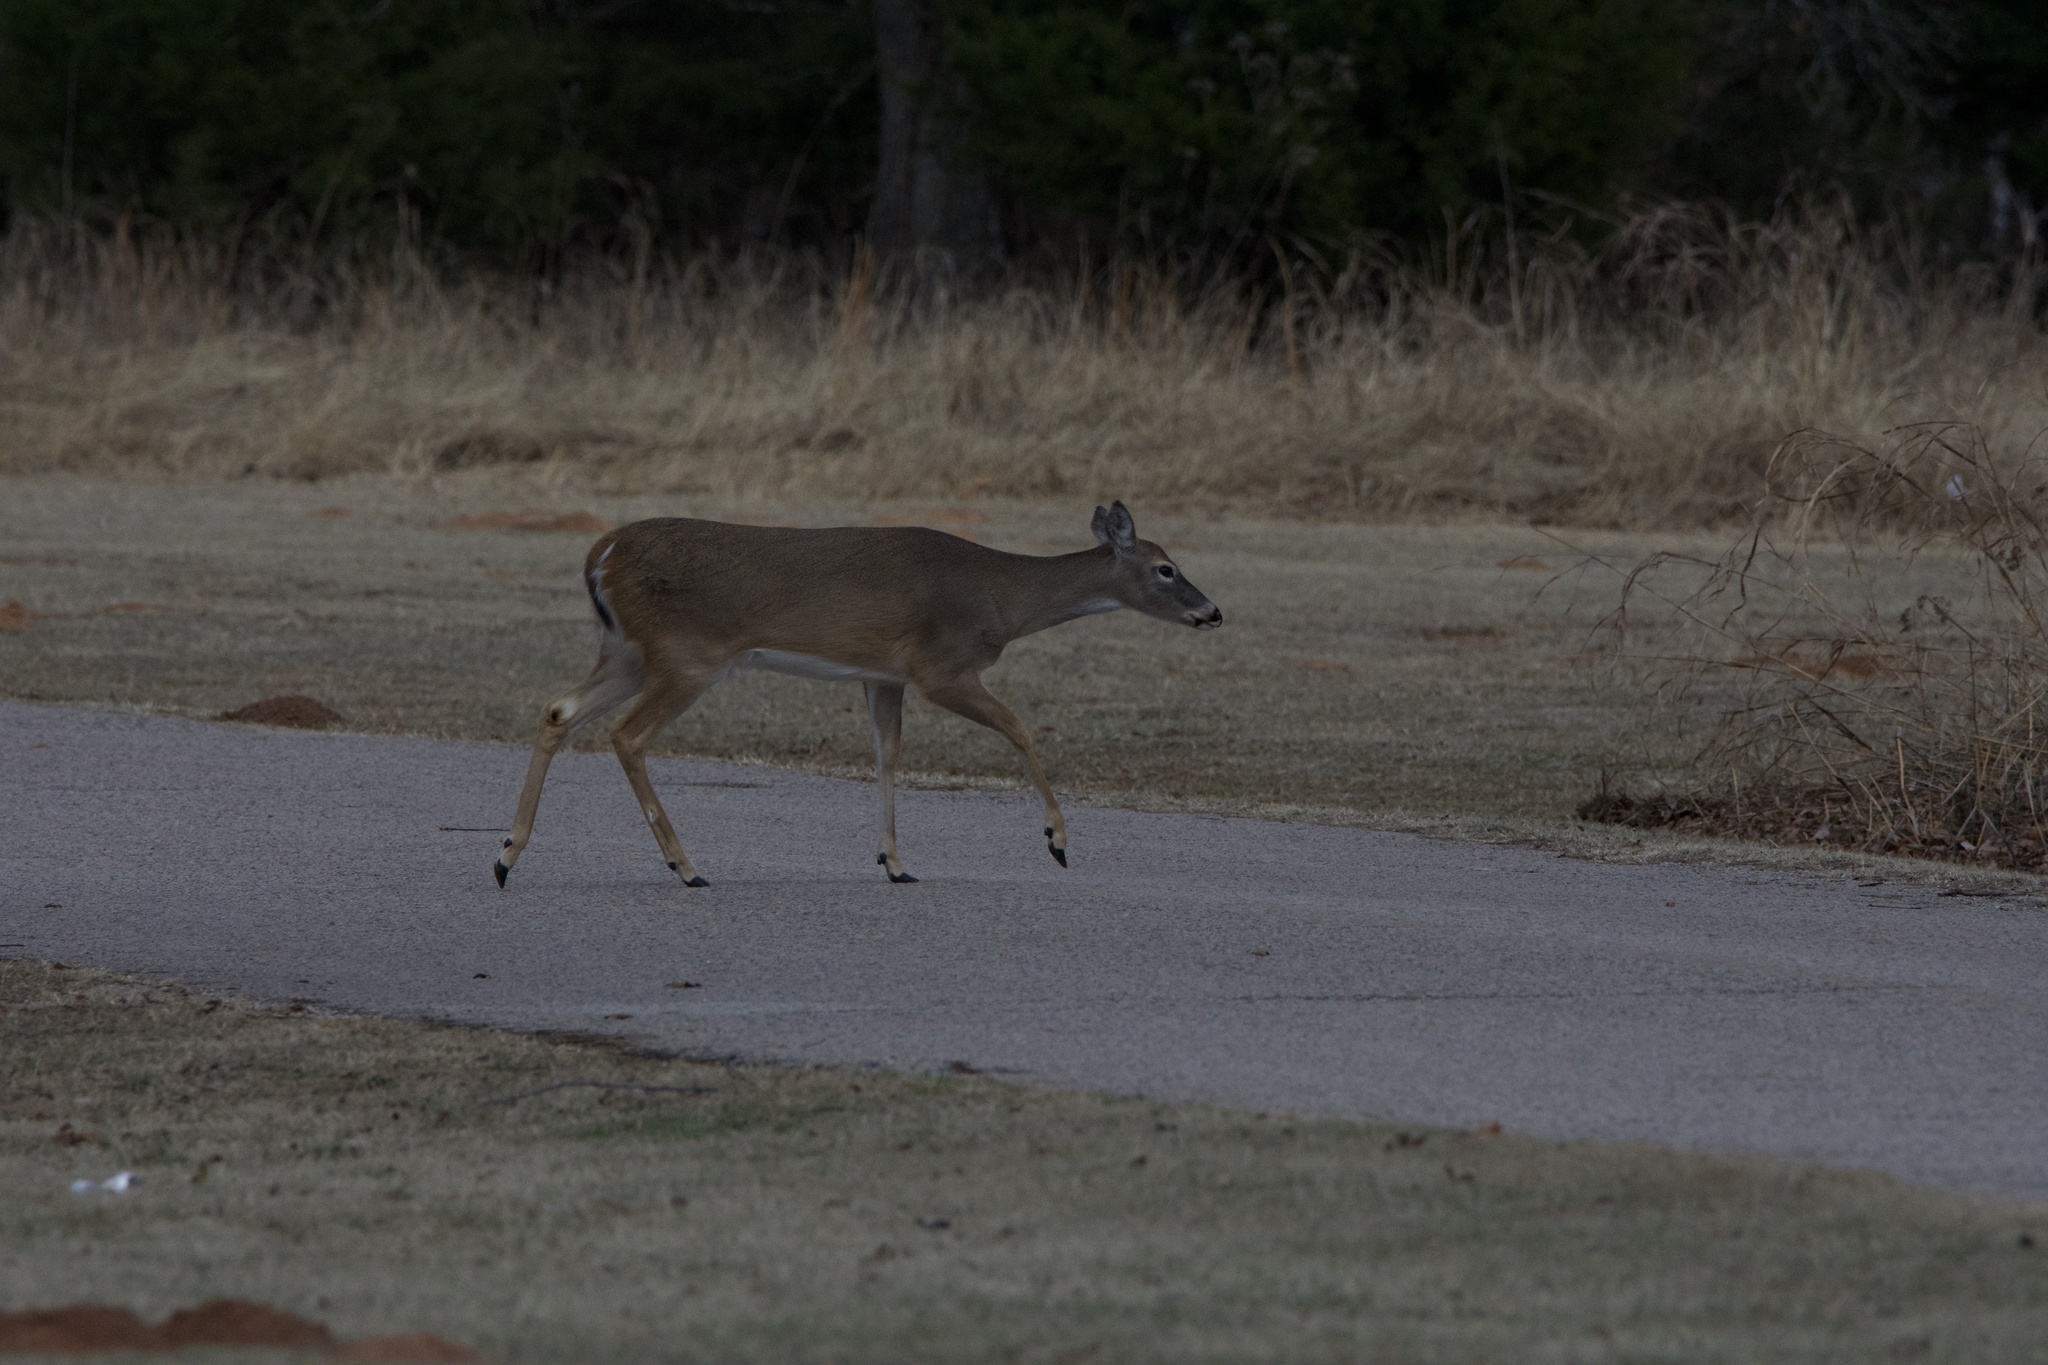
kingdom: Animalia
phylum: Chordata
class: Mammalia
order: Artiodactyla
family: Cervidae
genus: Odocoileus
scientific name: Odocoileus virginianus
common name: White-tailed deer
